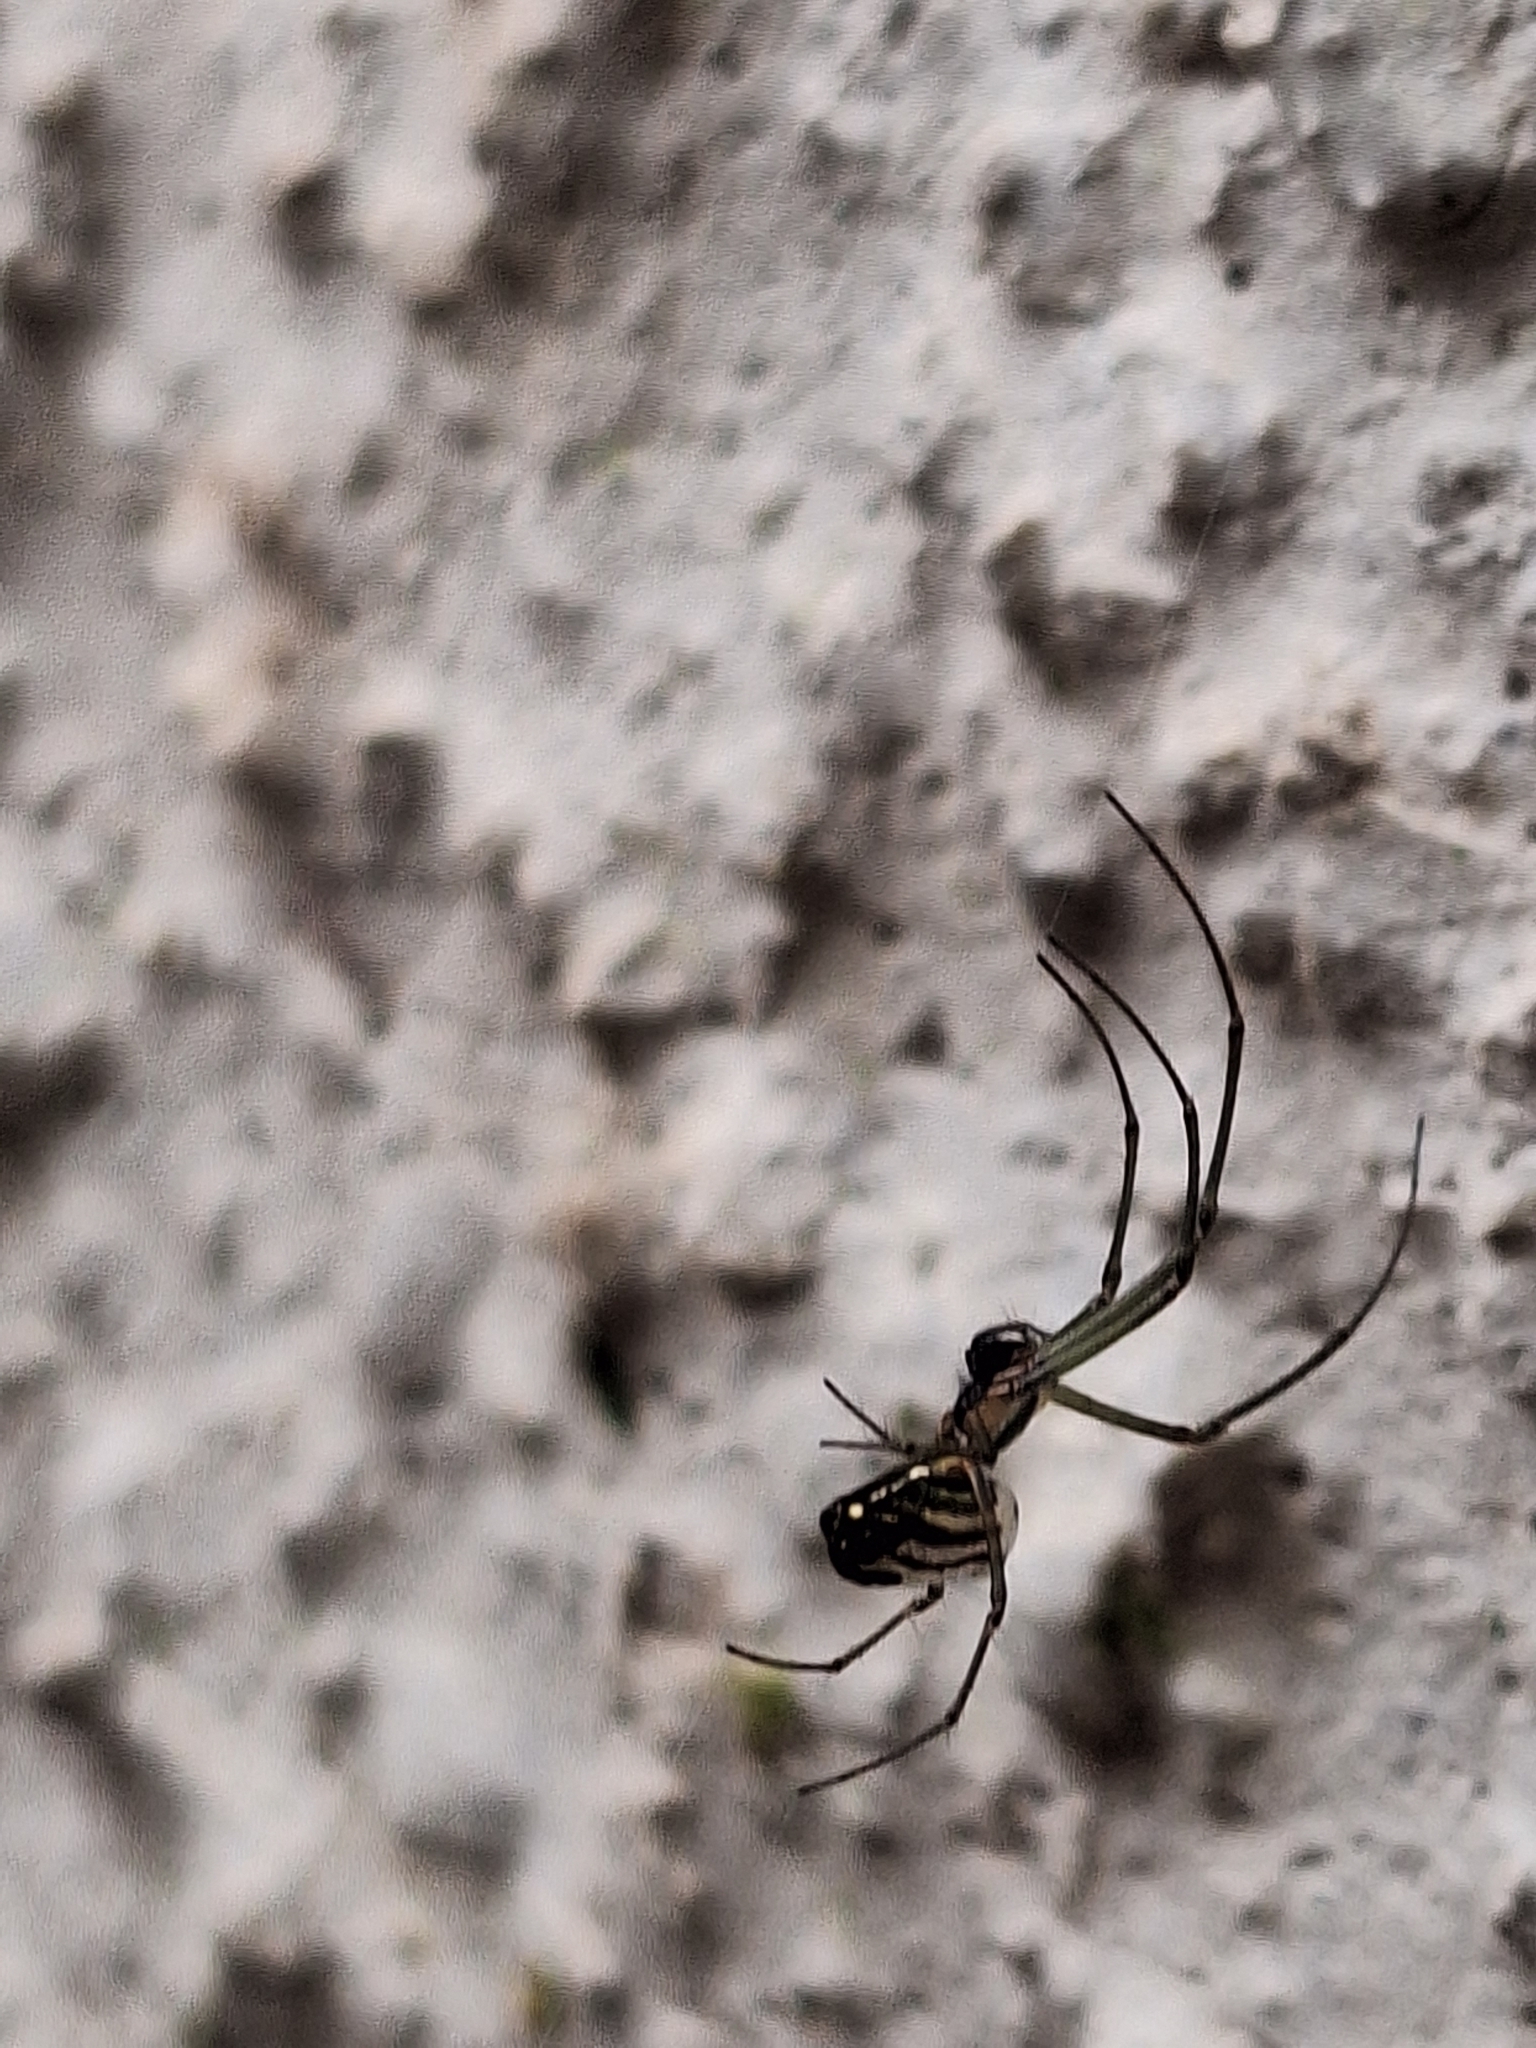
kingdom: Animalia
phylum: Arthropoda
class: Arachnida
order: Araneae
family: Tetragnathidae
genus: Leucauge
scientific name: Leucauge volupis
